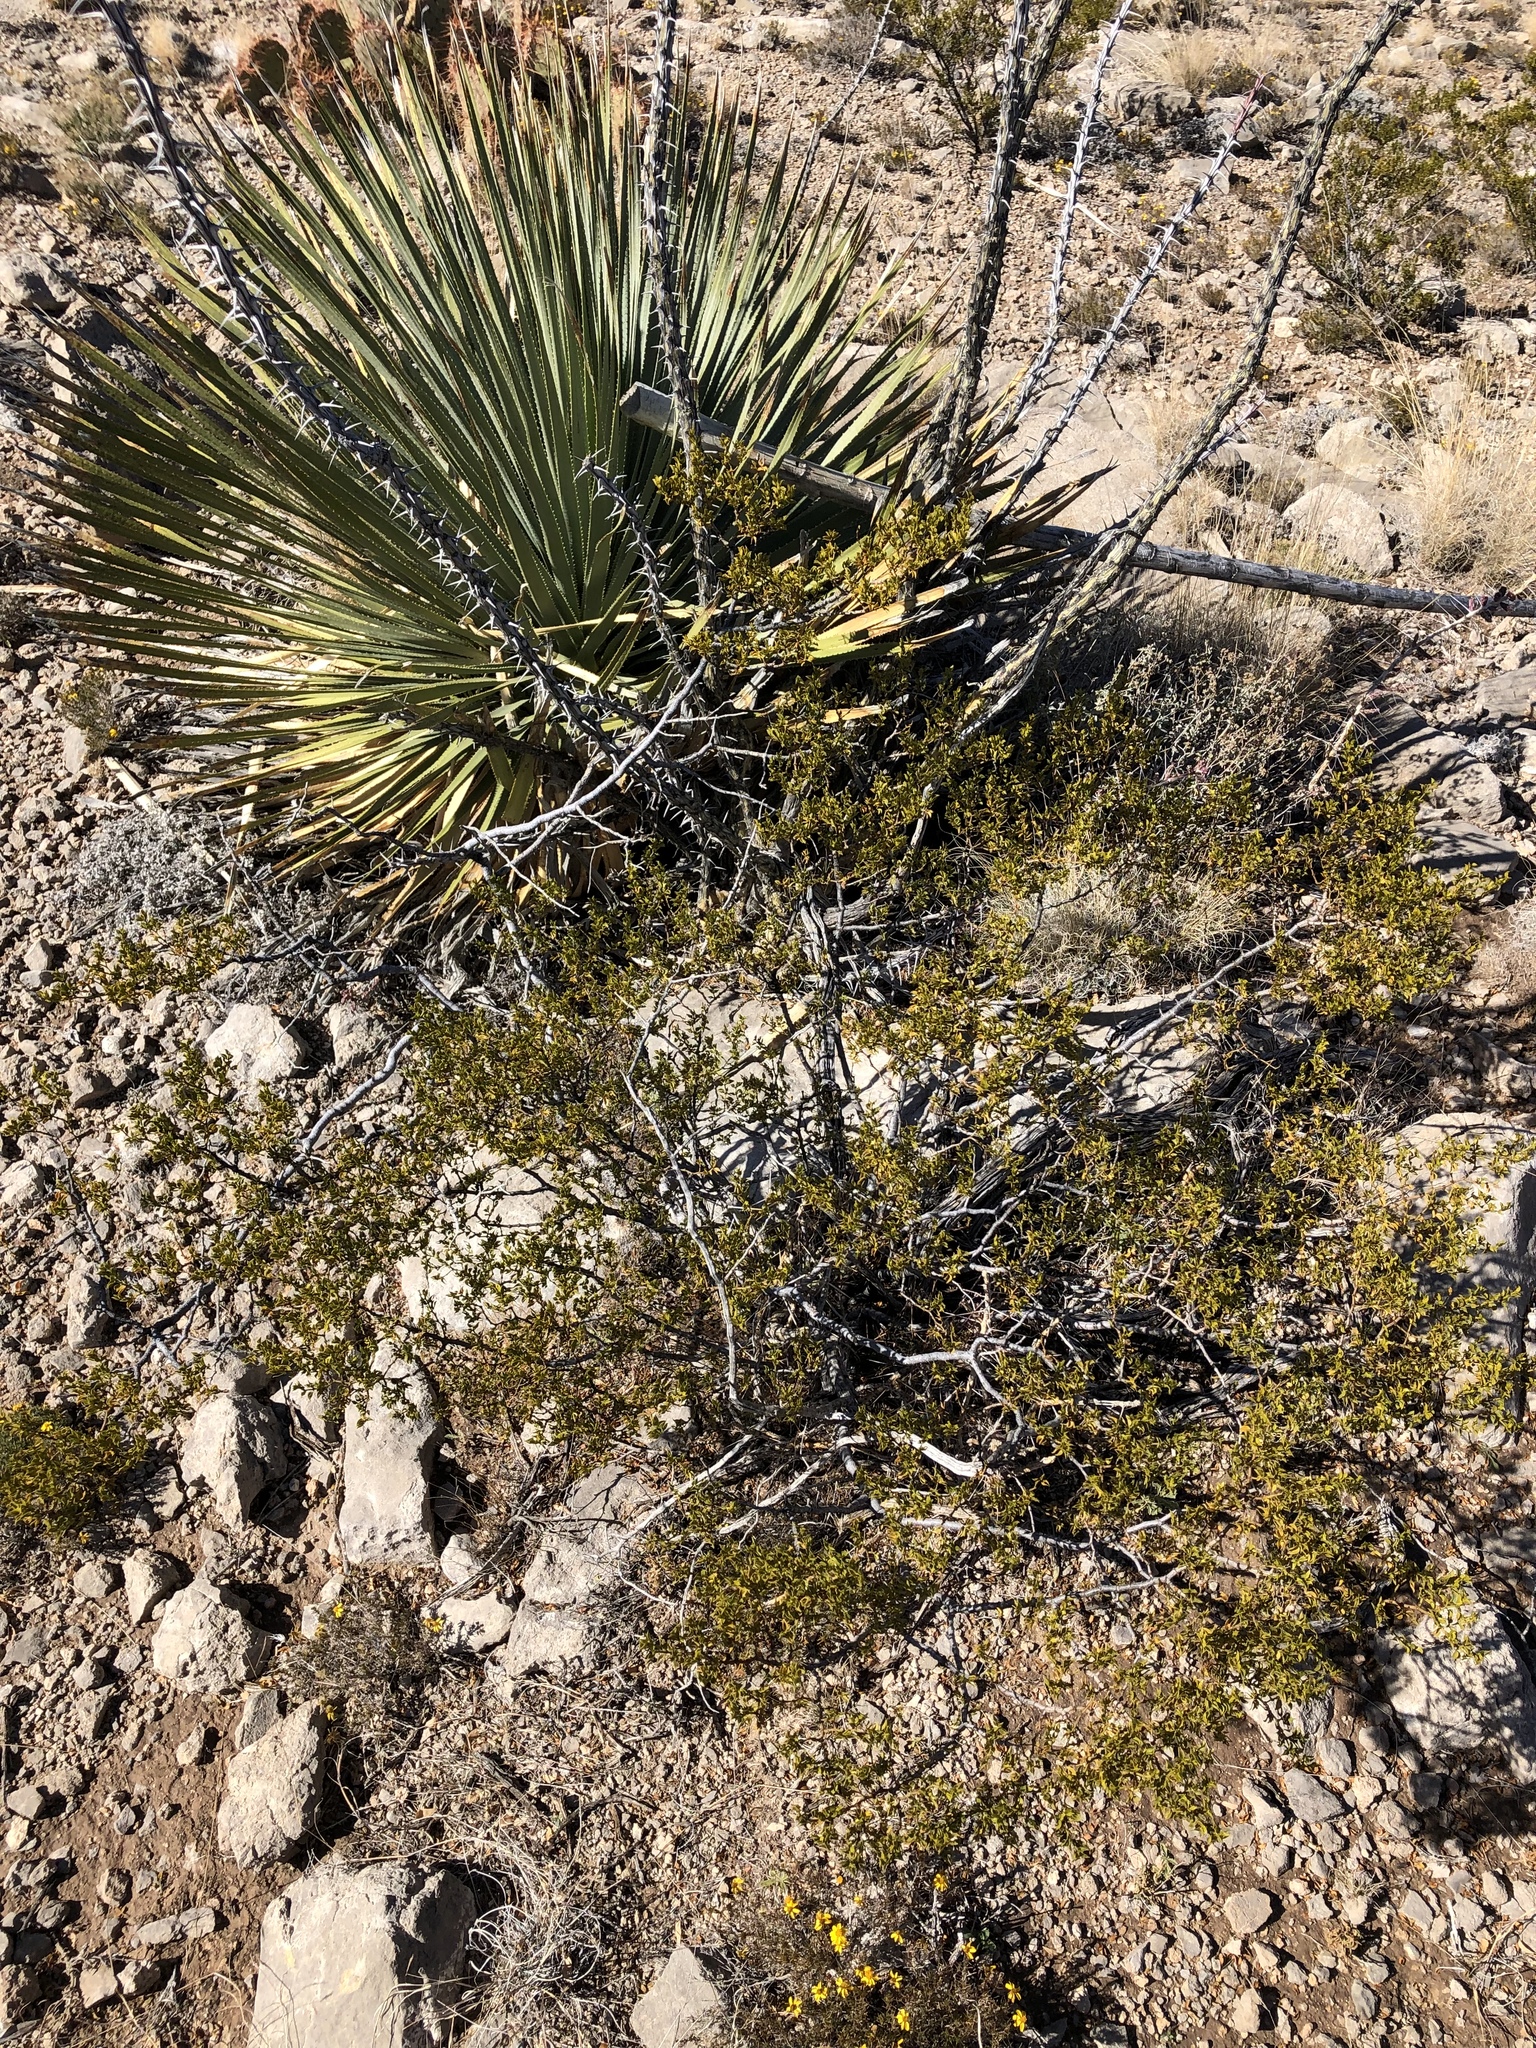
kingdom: Plantae
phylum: Tracheophyta
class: Magnoliopsida
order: Zygophyllales
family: Zygophyllaceae
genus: Larrea
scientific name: Larrea tridentata
